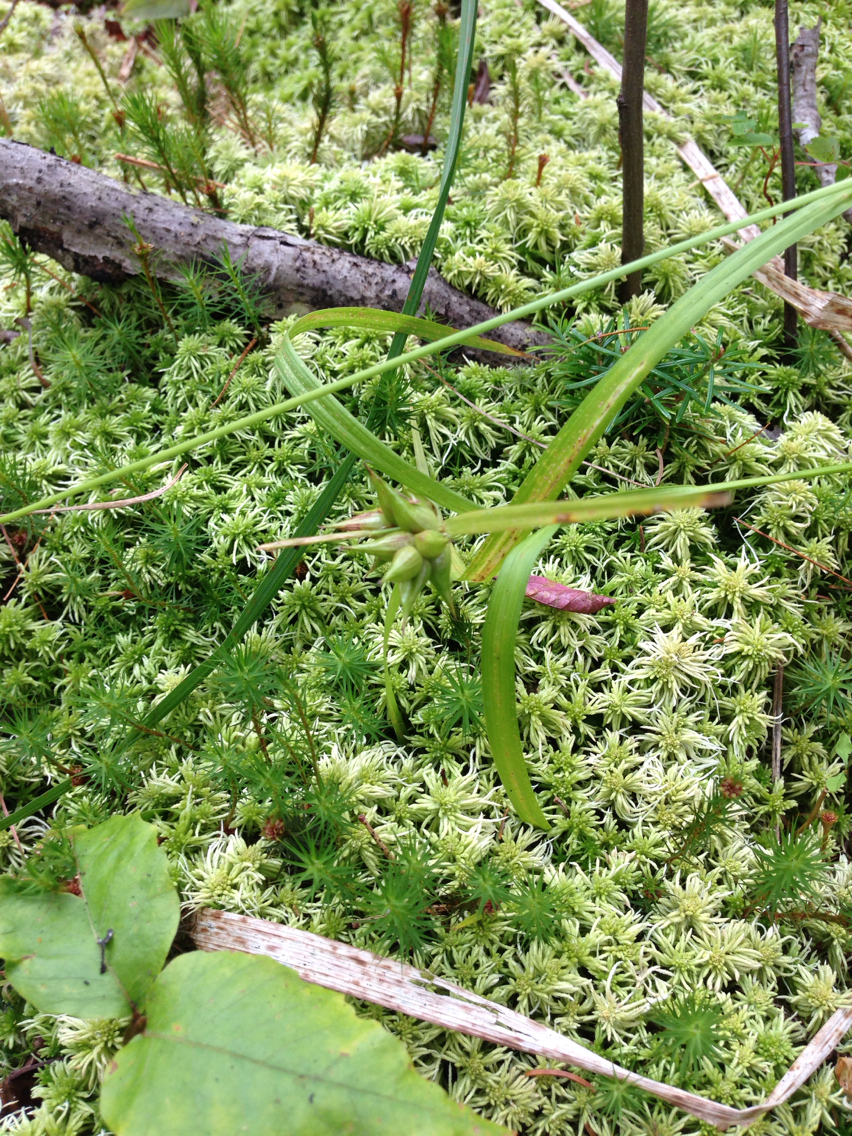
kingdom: Plantae
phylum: Tracheophyta
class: Liliopsida
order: Poales
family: Cyperaceae
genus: Carex
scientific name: Carex intumescens
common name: Greater bladder sedge
